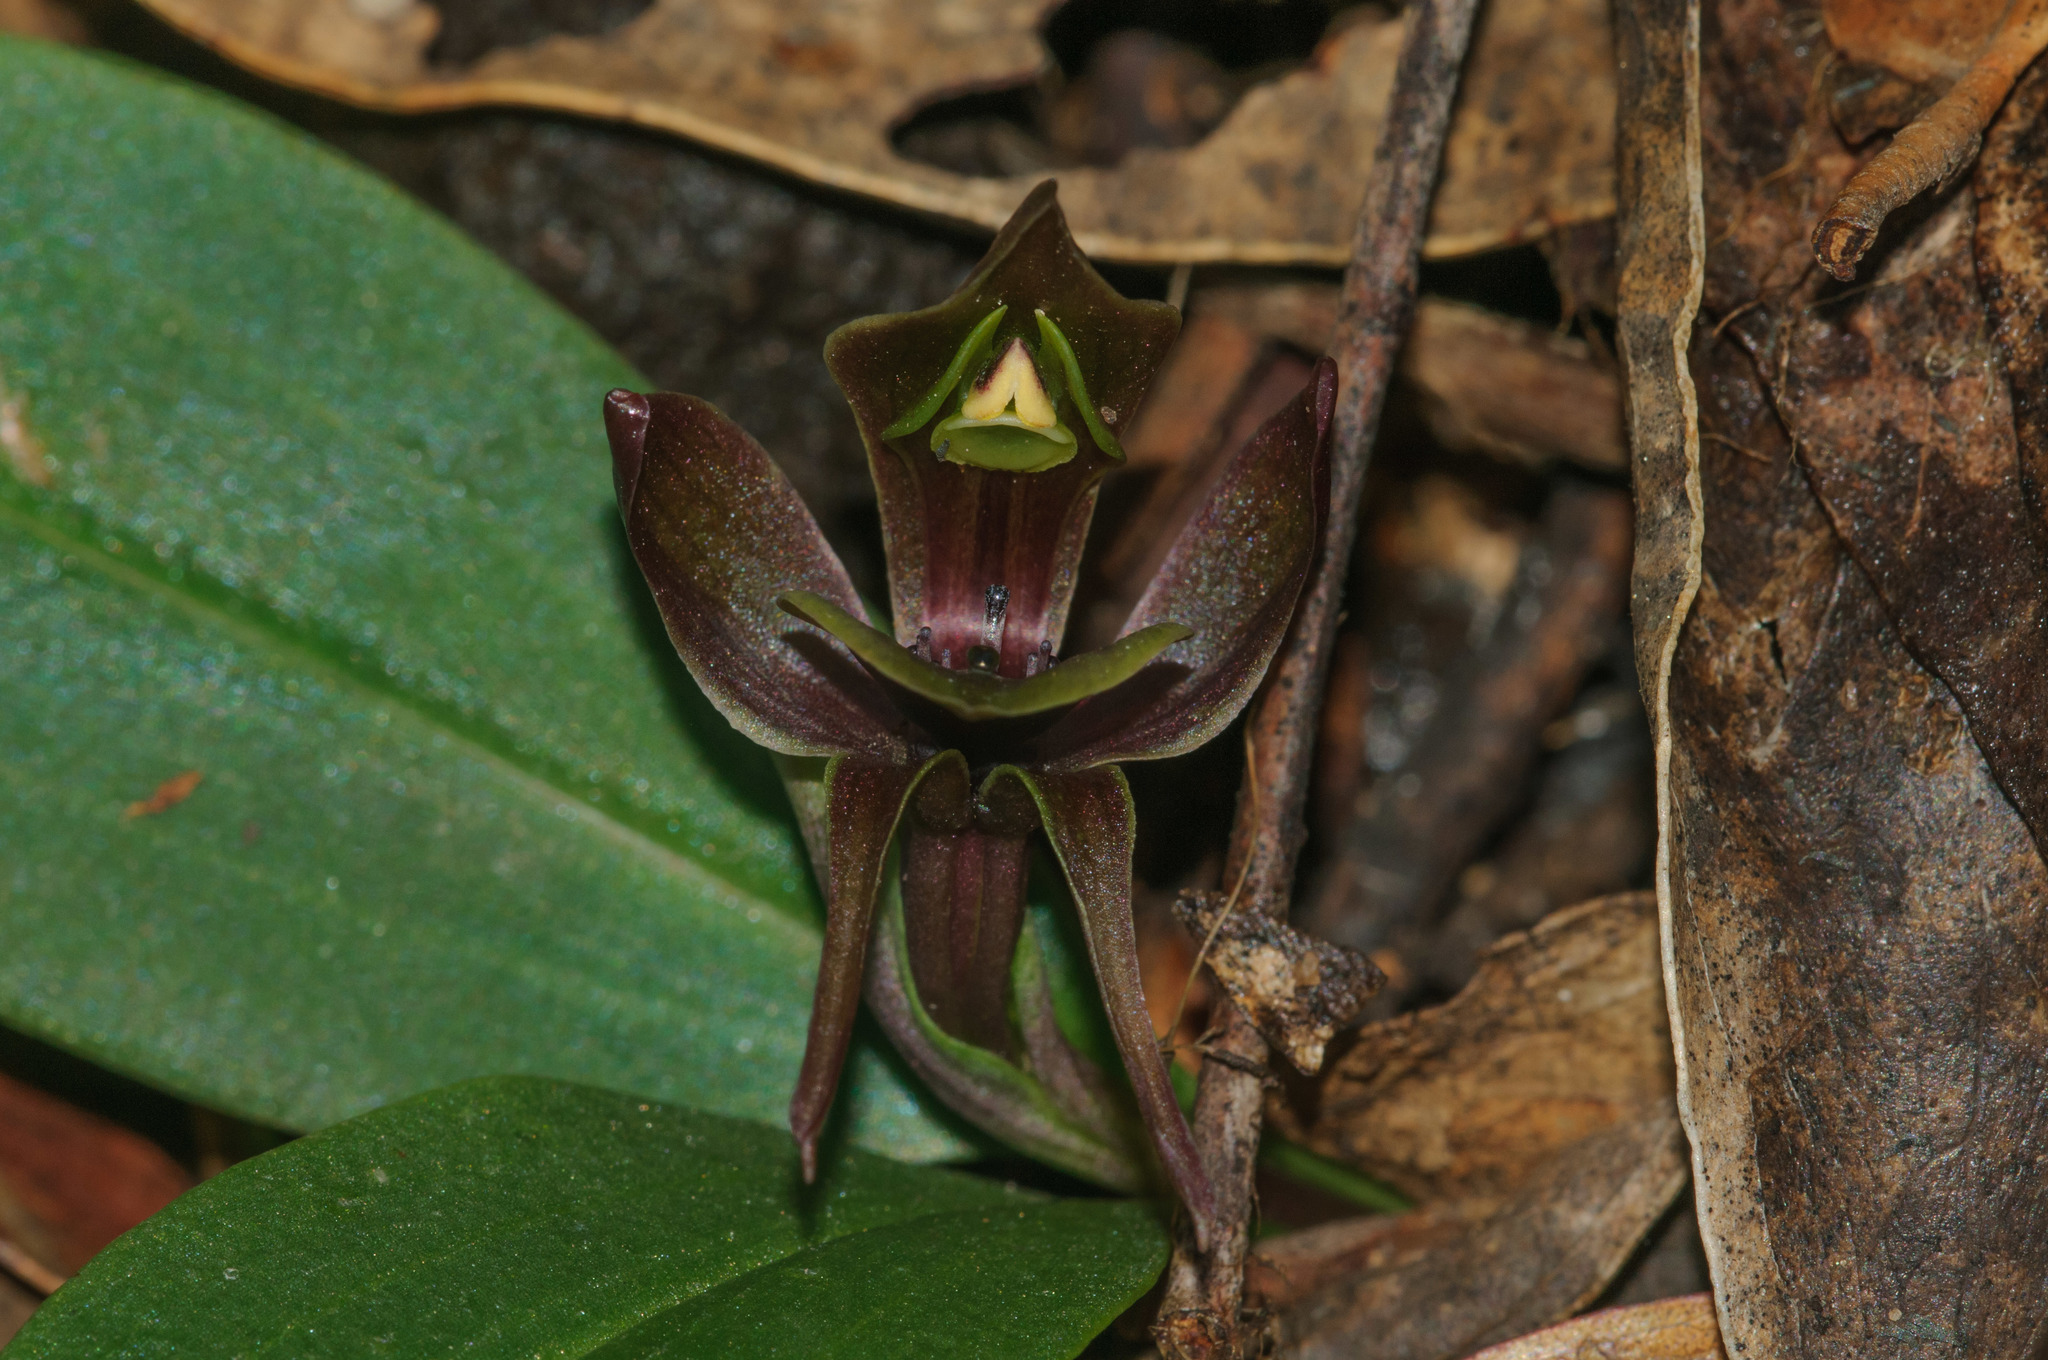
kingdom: Plantae
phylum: Tracheophyta
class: Liliopsida
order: Asparagales
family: Orchidaceae
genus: Chiloglottis
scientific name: Chiloglottis valida
